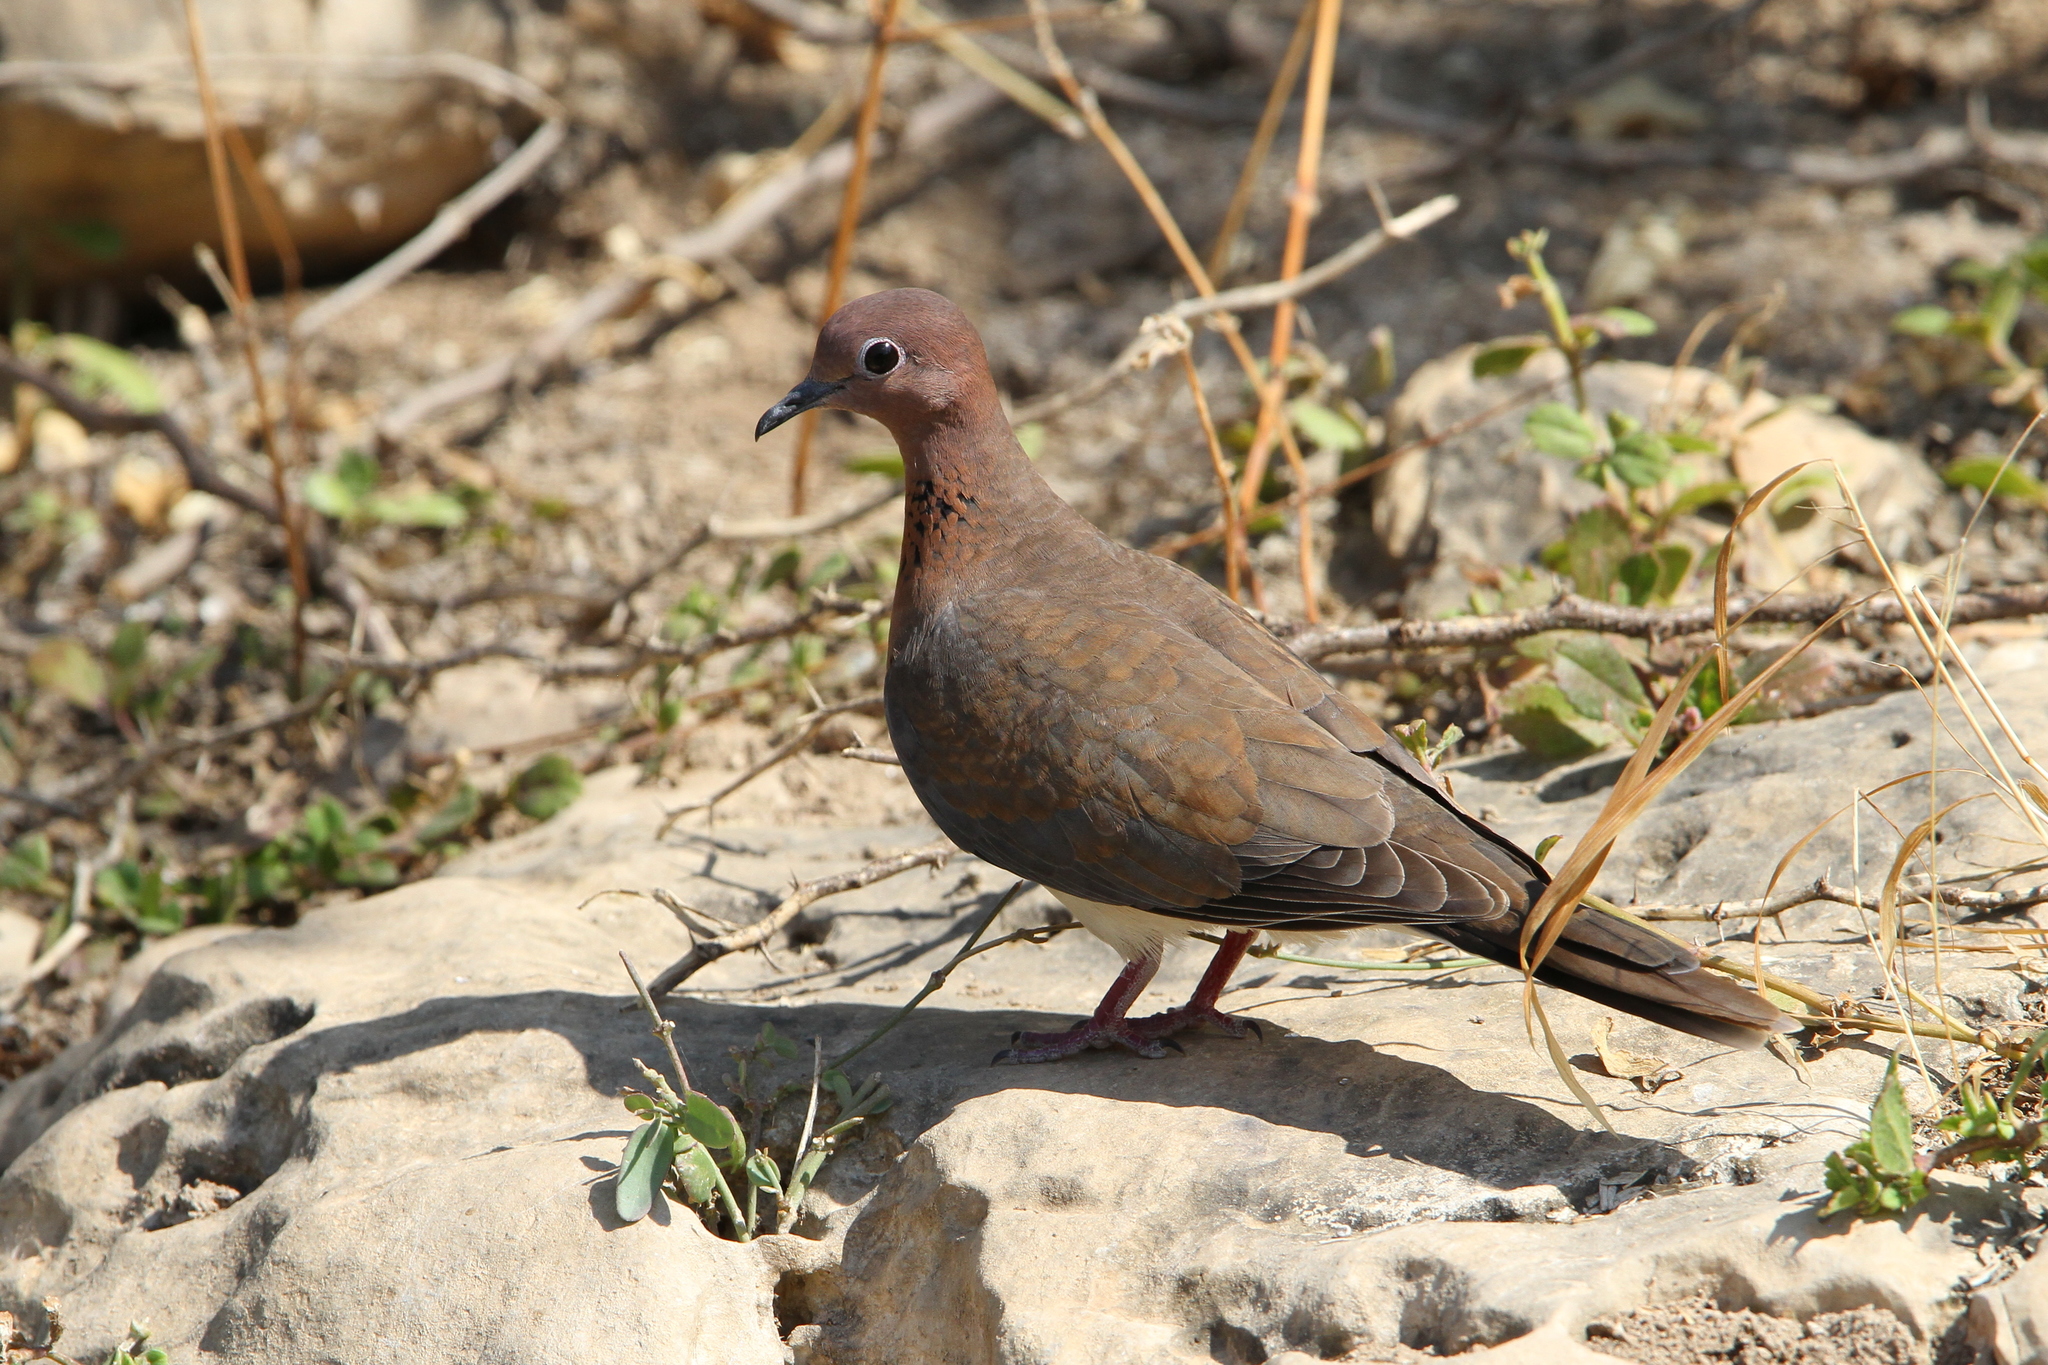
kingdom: Animalia
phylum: Chordata
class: Aves
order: Columbiformes
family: Columbidae
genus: Spilopelia
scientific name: Spilopelia senegalensis
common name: Laughing dove
